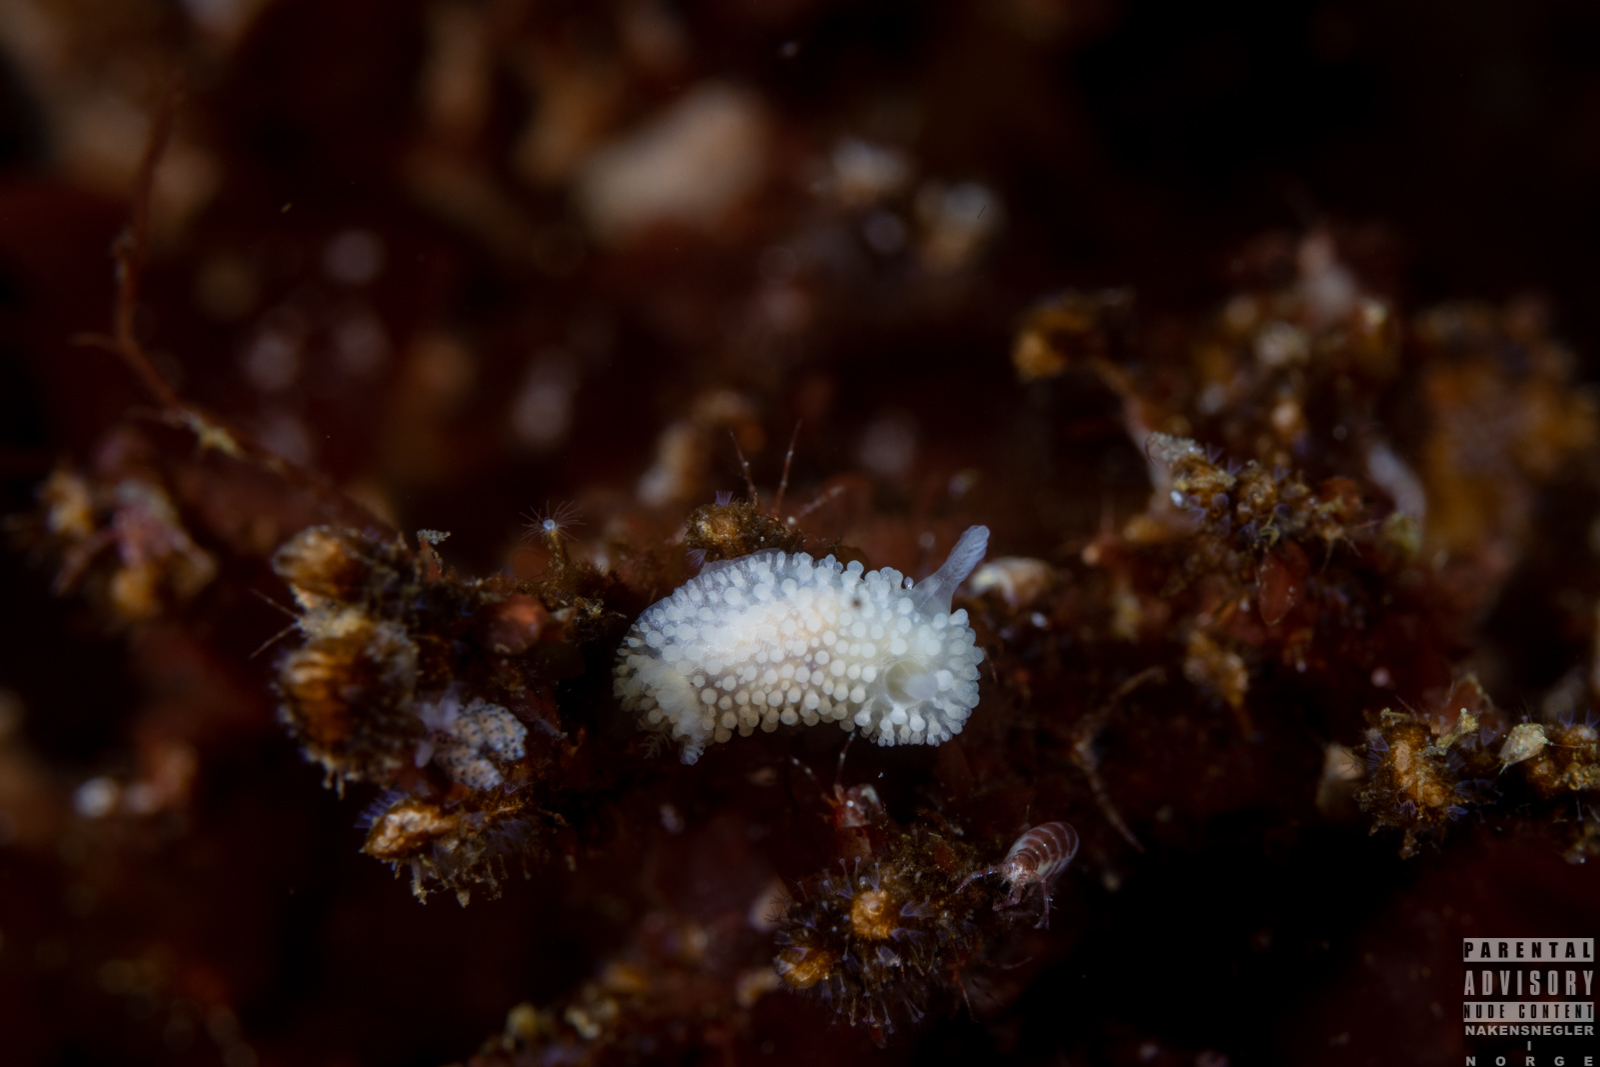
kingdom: Animalia
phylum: Mollusca
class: Gastropoda
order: Nudibranchia
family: Onchidorididae
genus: Onchidoris
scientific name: Onchidoris muricata
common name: Rough doris
